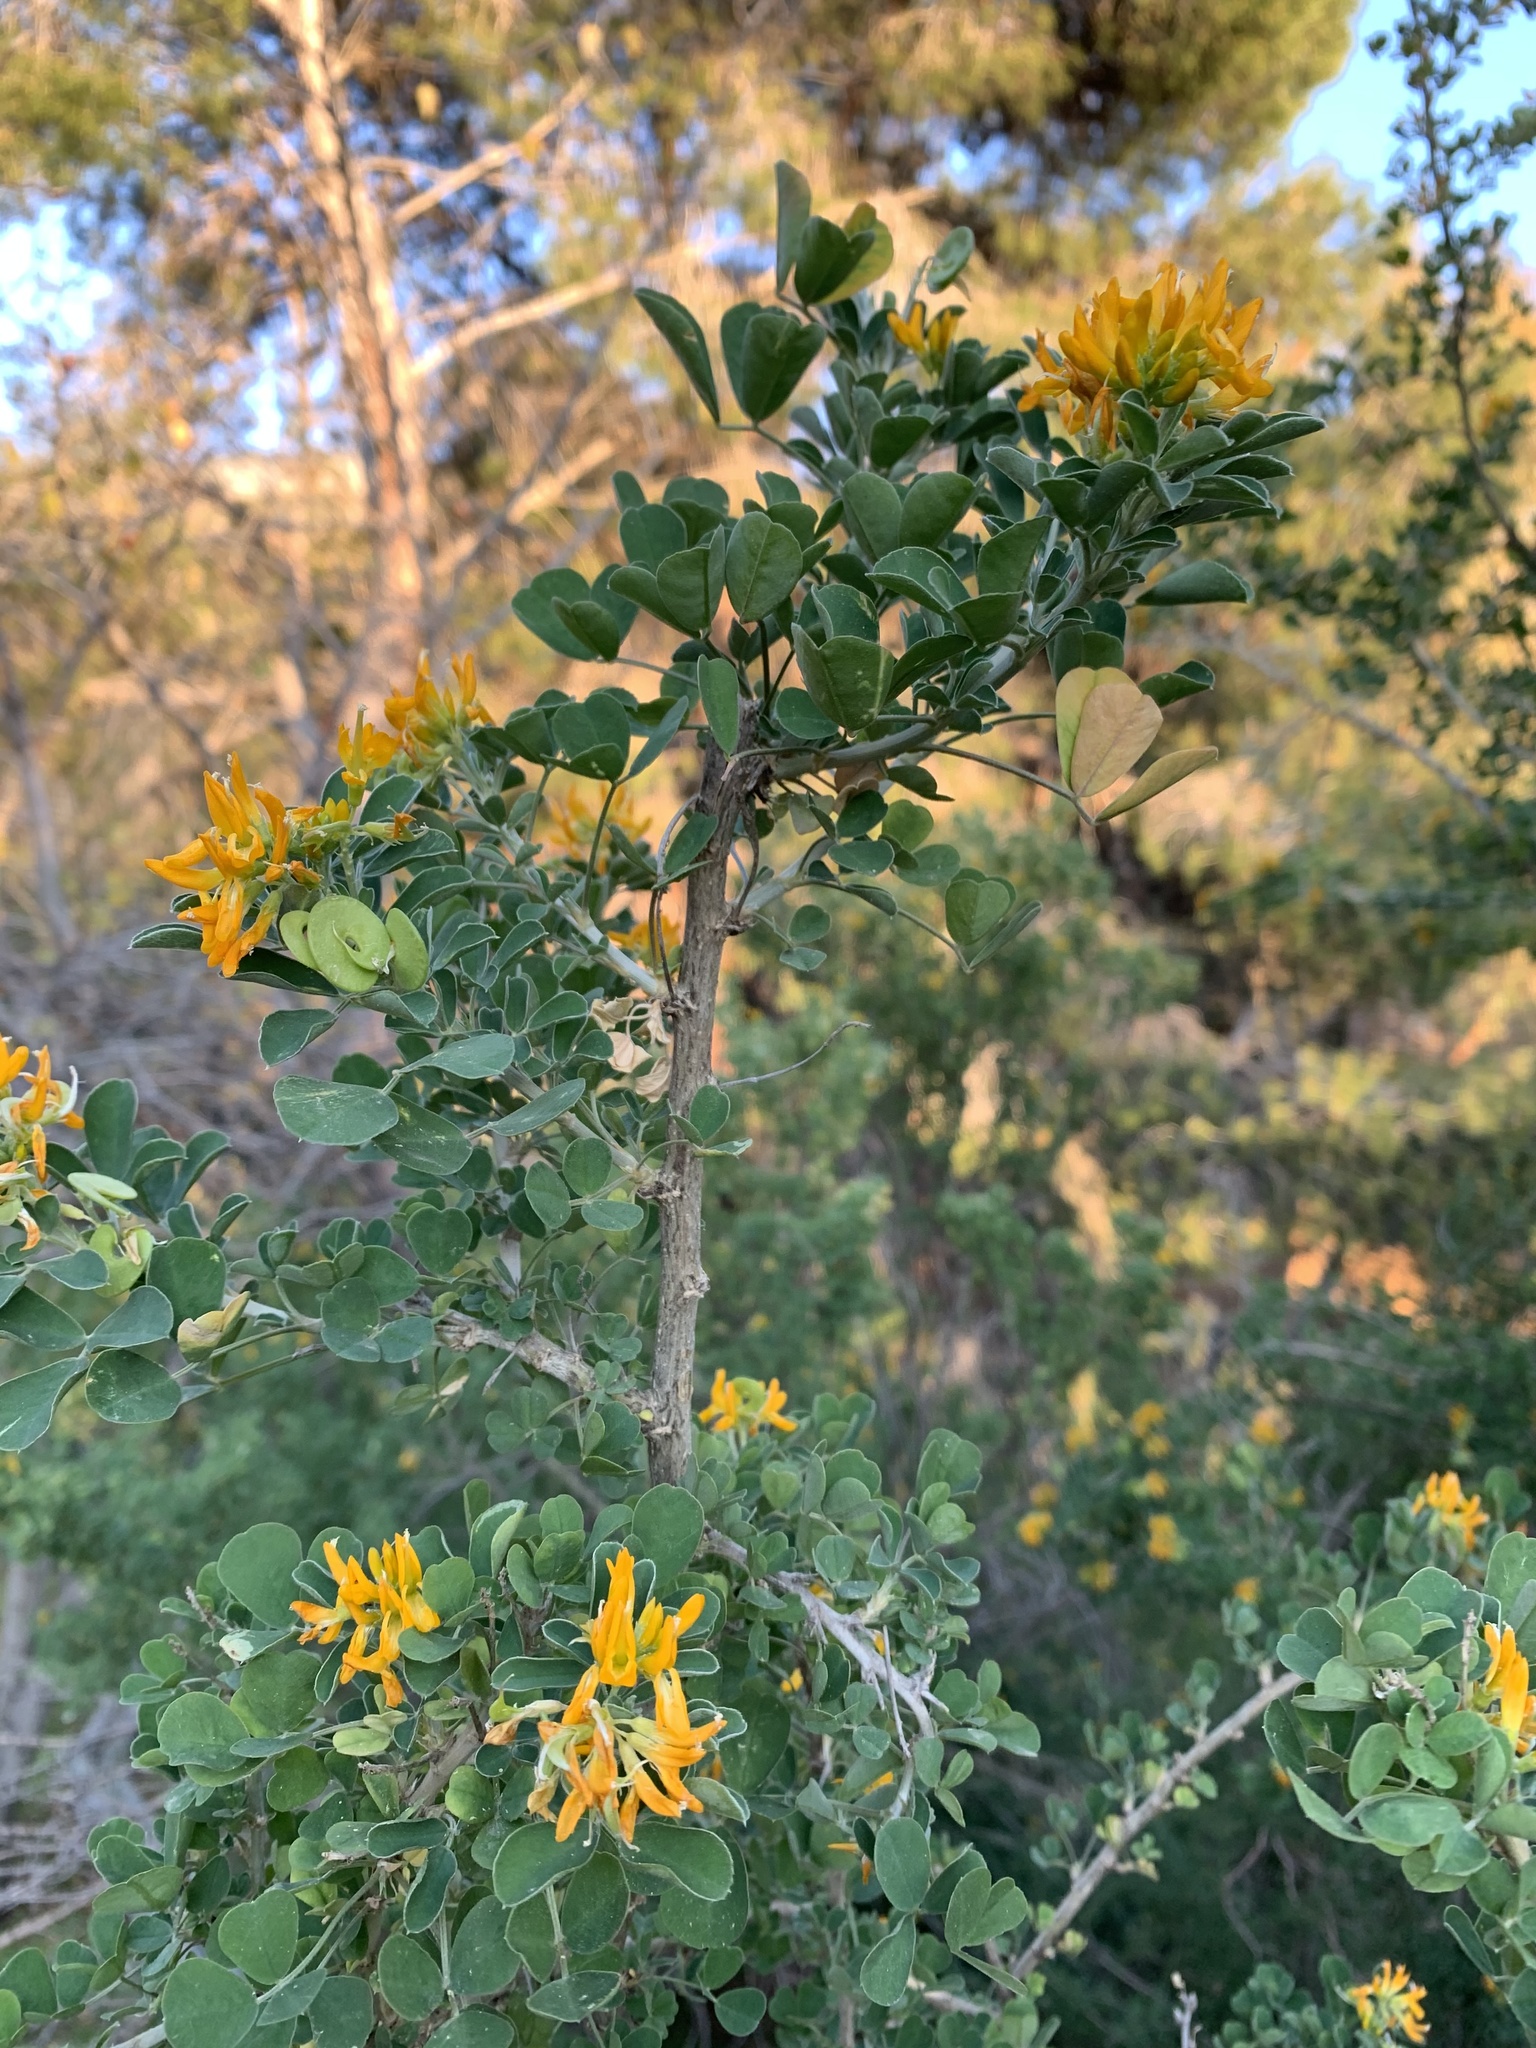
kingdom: Plantae
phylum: Tracheophyta
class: Magnoliopsida
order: Fabales
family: Fabaceae
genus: Medicago
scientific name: Medicago arborea
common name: Moon trefoil
